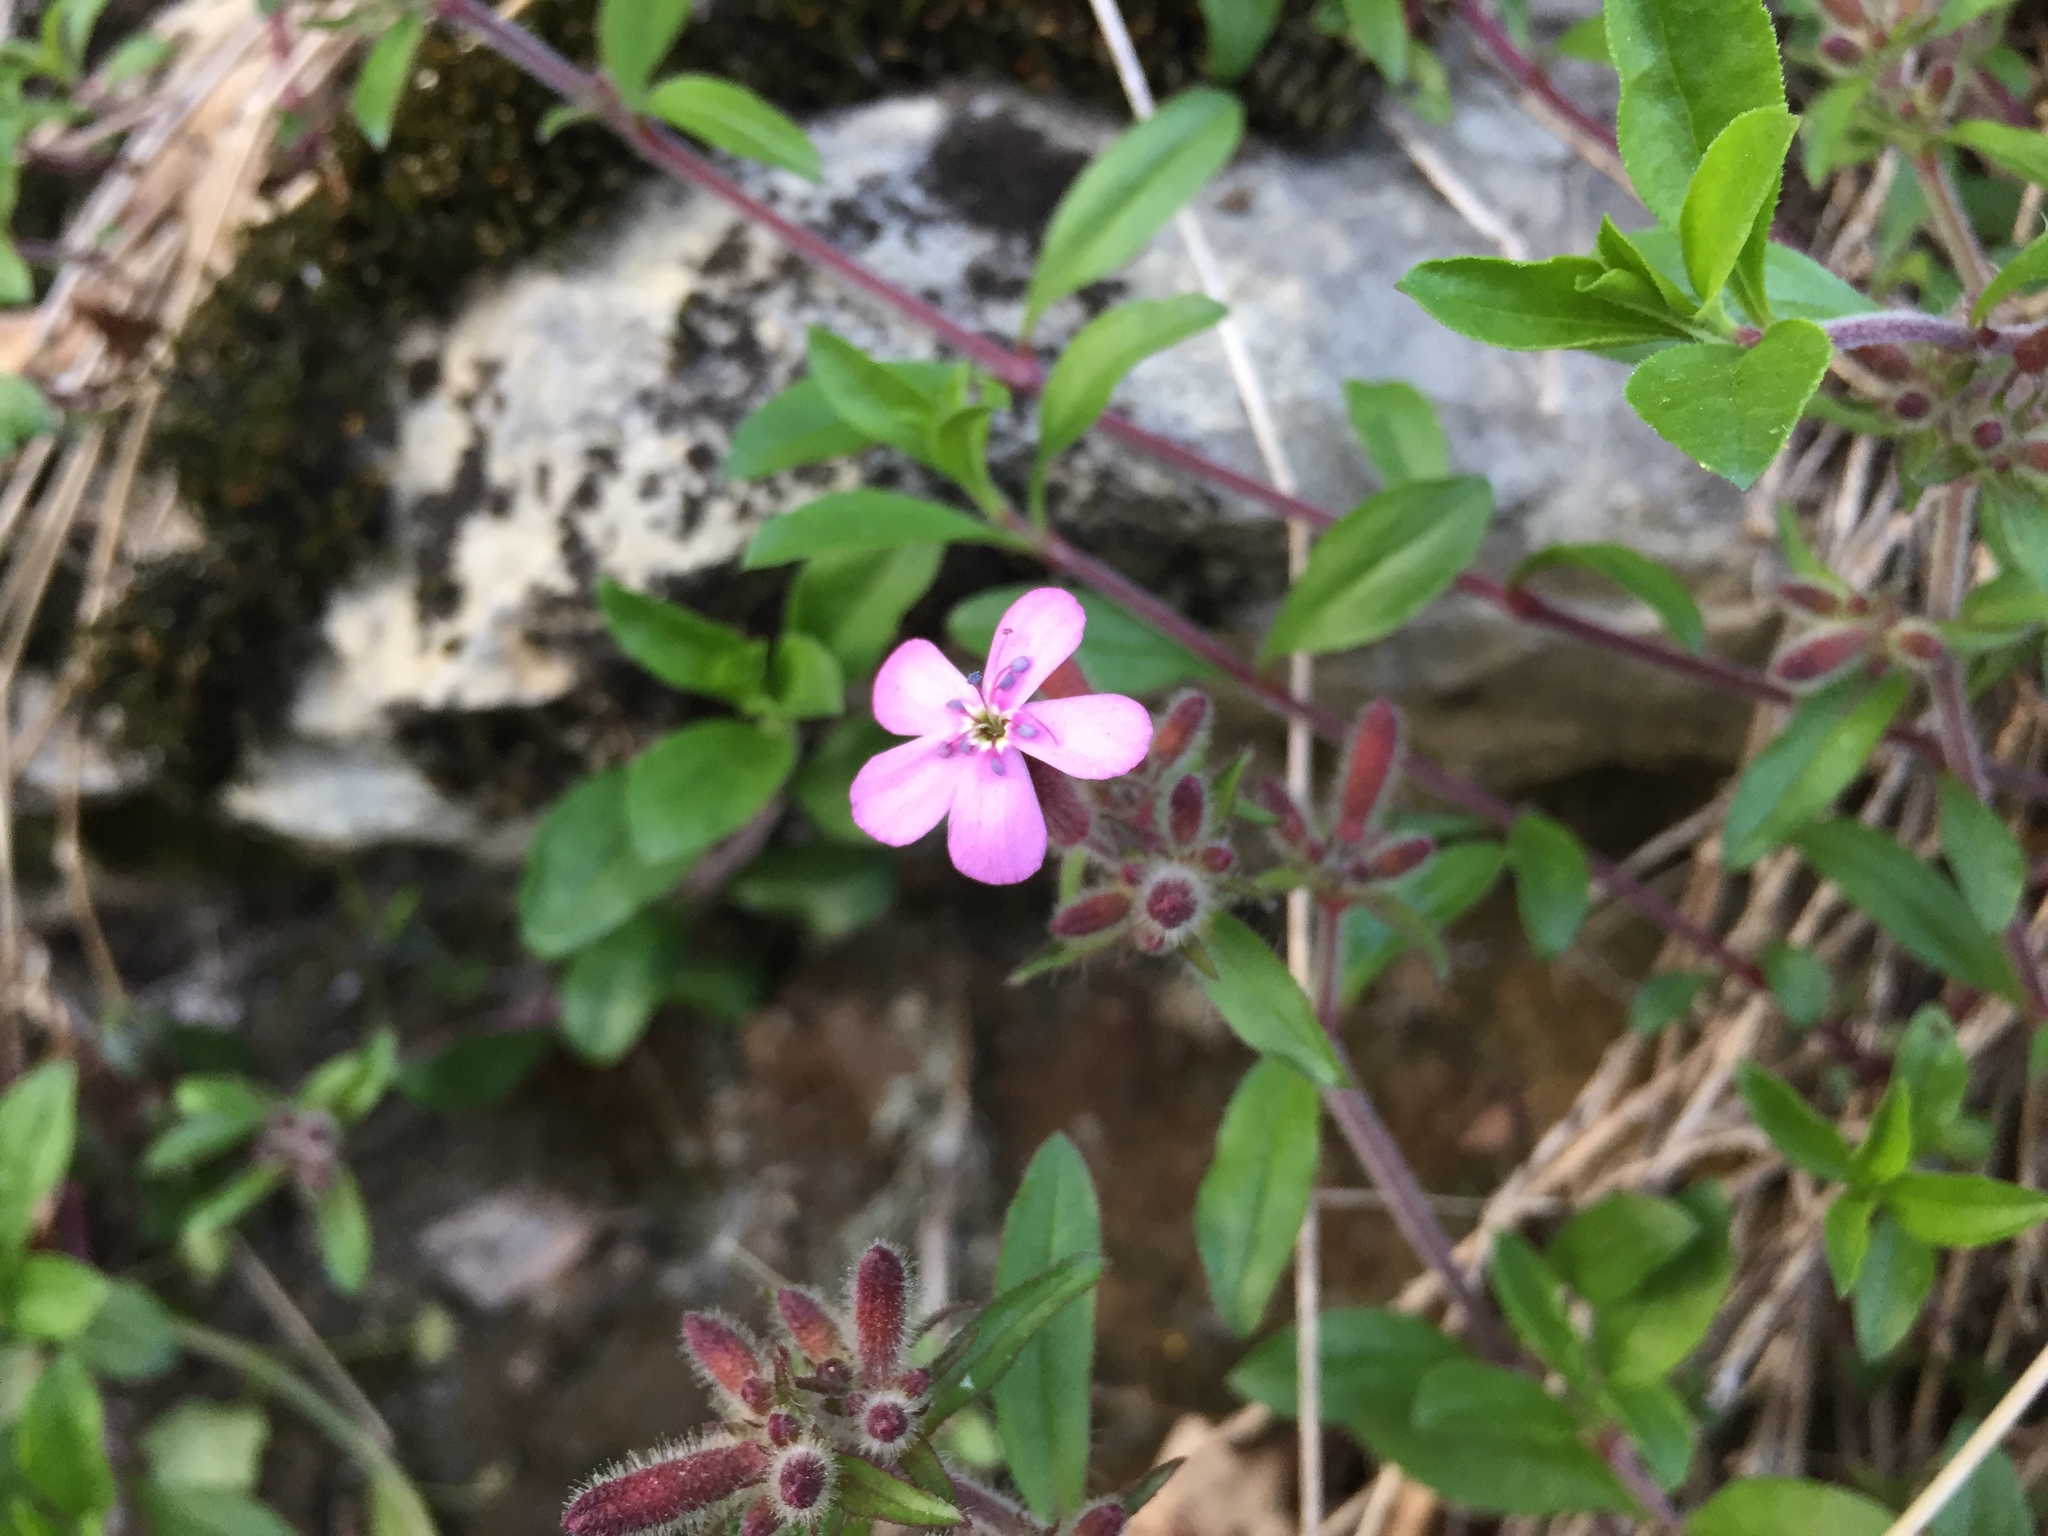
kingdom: Plantae
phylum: Tracheophyta
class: Magnoliopsida
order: Caryophyllales
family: Caryophyllaceae
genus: Saponaria
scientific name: Saponaria ocymoides
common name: Rock soapwort
